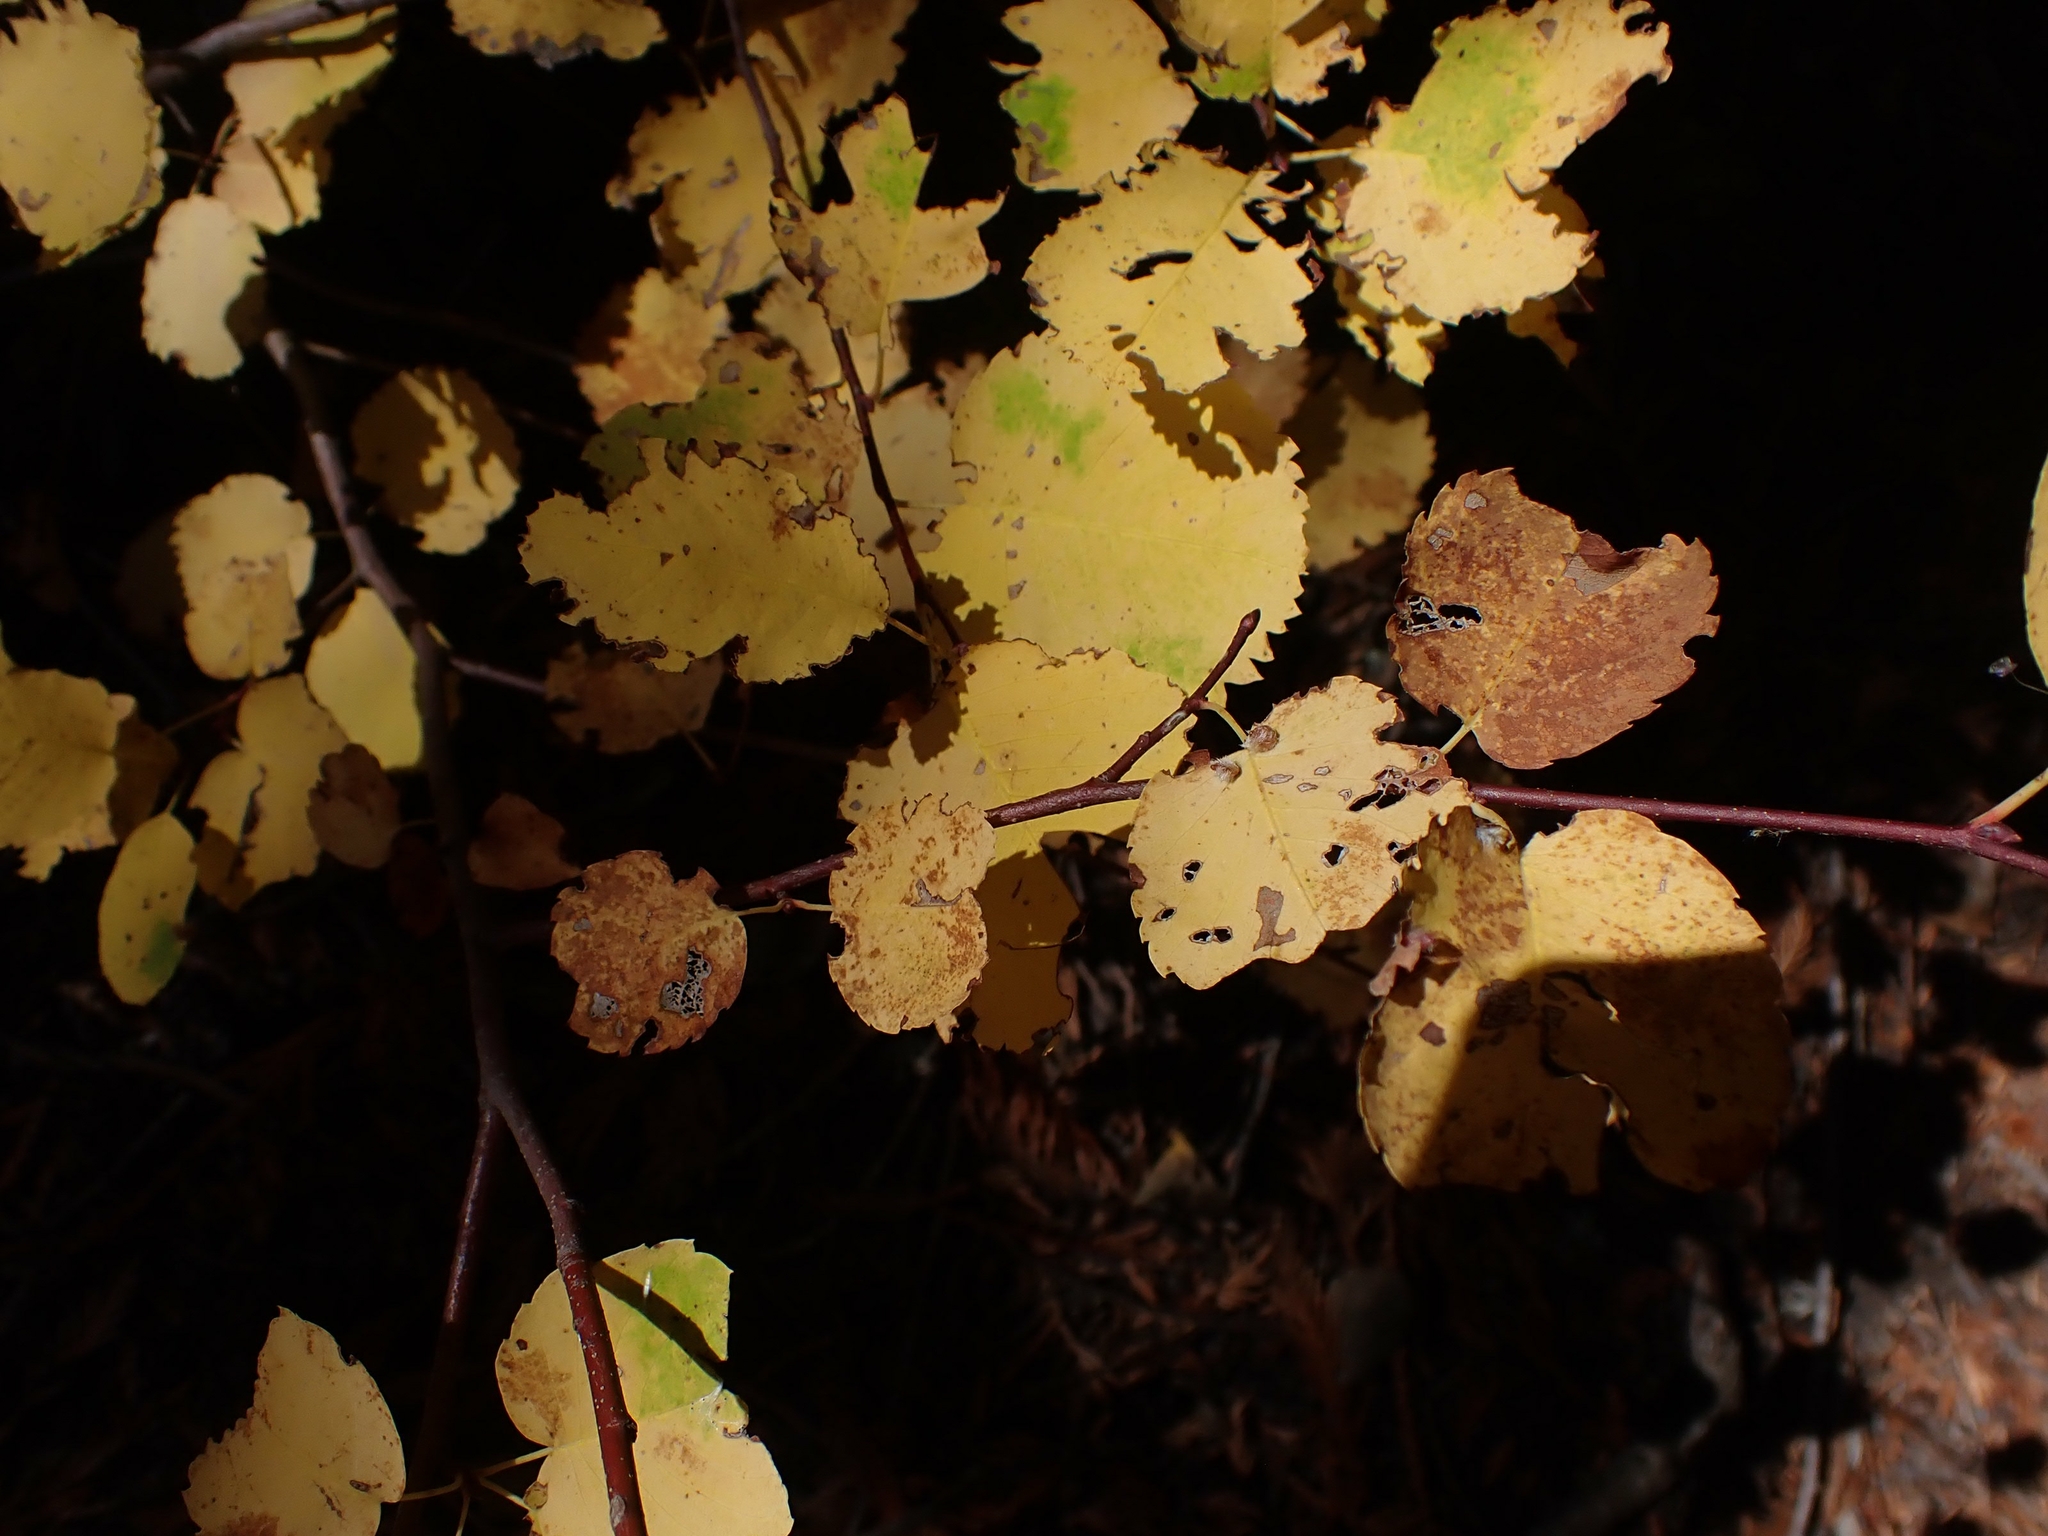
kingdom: Plantae
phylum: Tracheophyta
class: Magnoliopsida
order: Rosales
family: Rosaceae
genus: Amelanchier
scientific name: Amelanchier alnifolia
